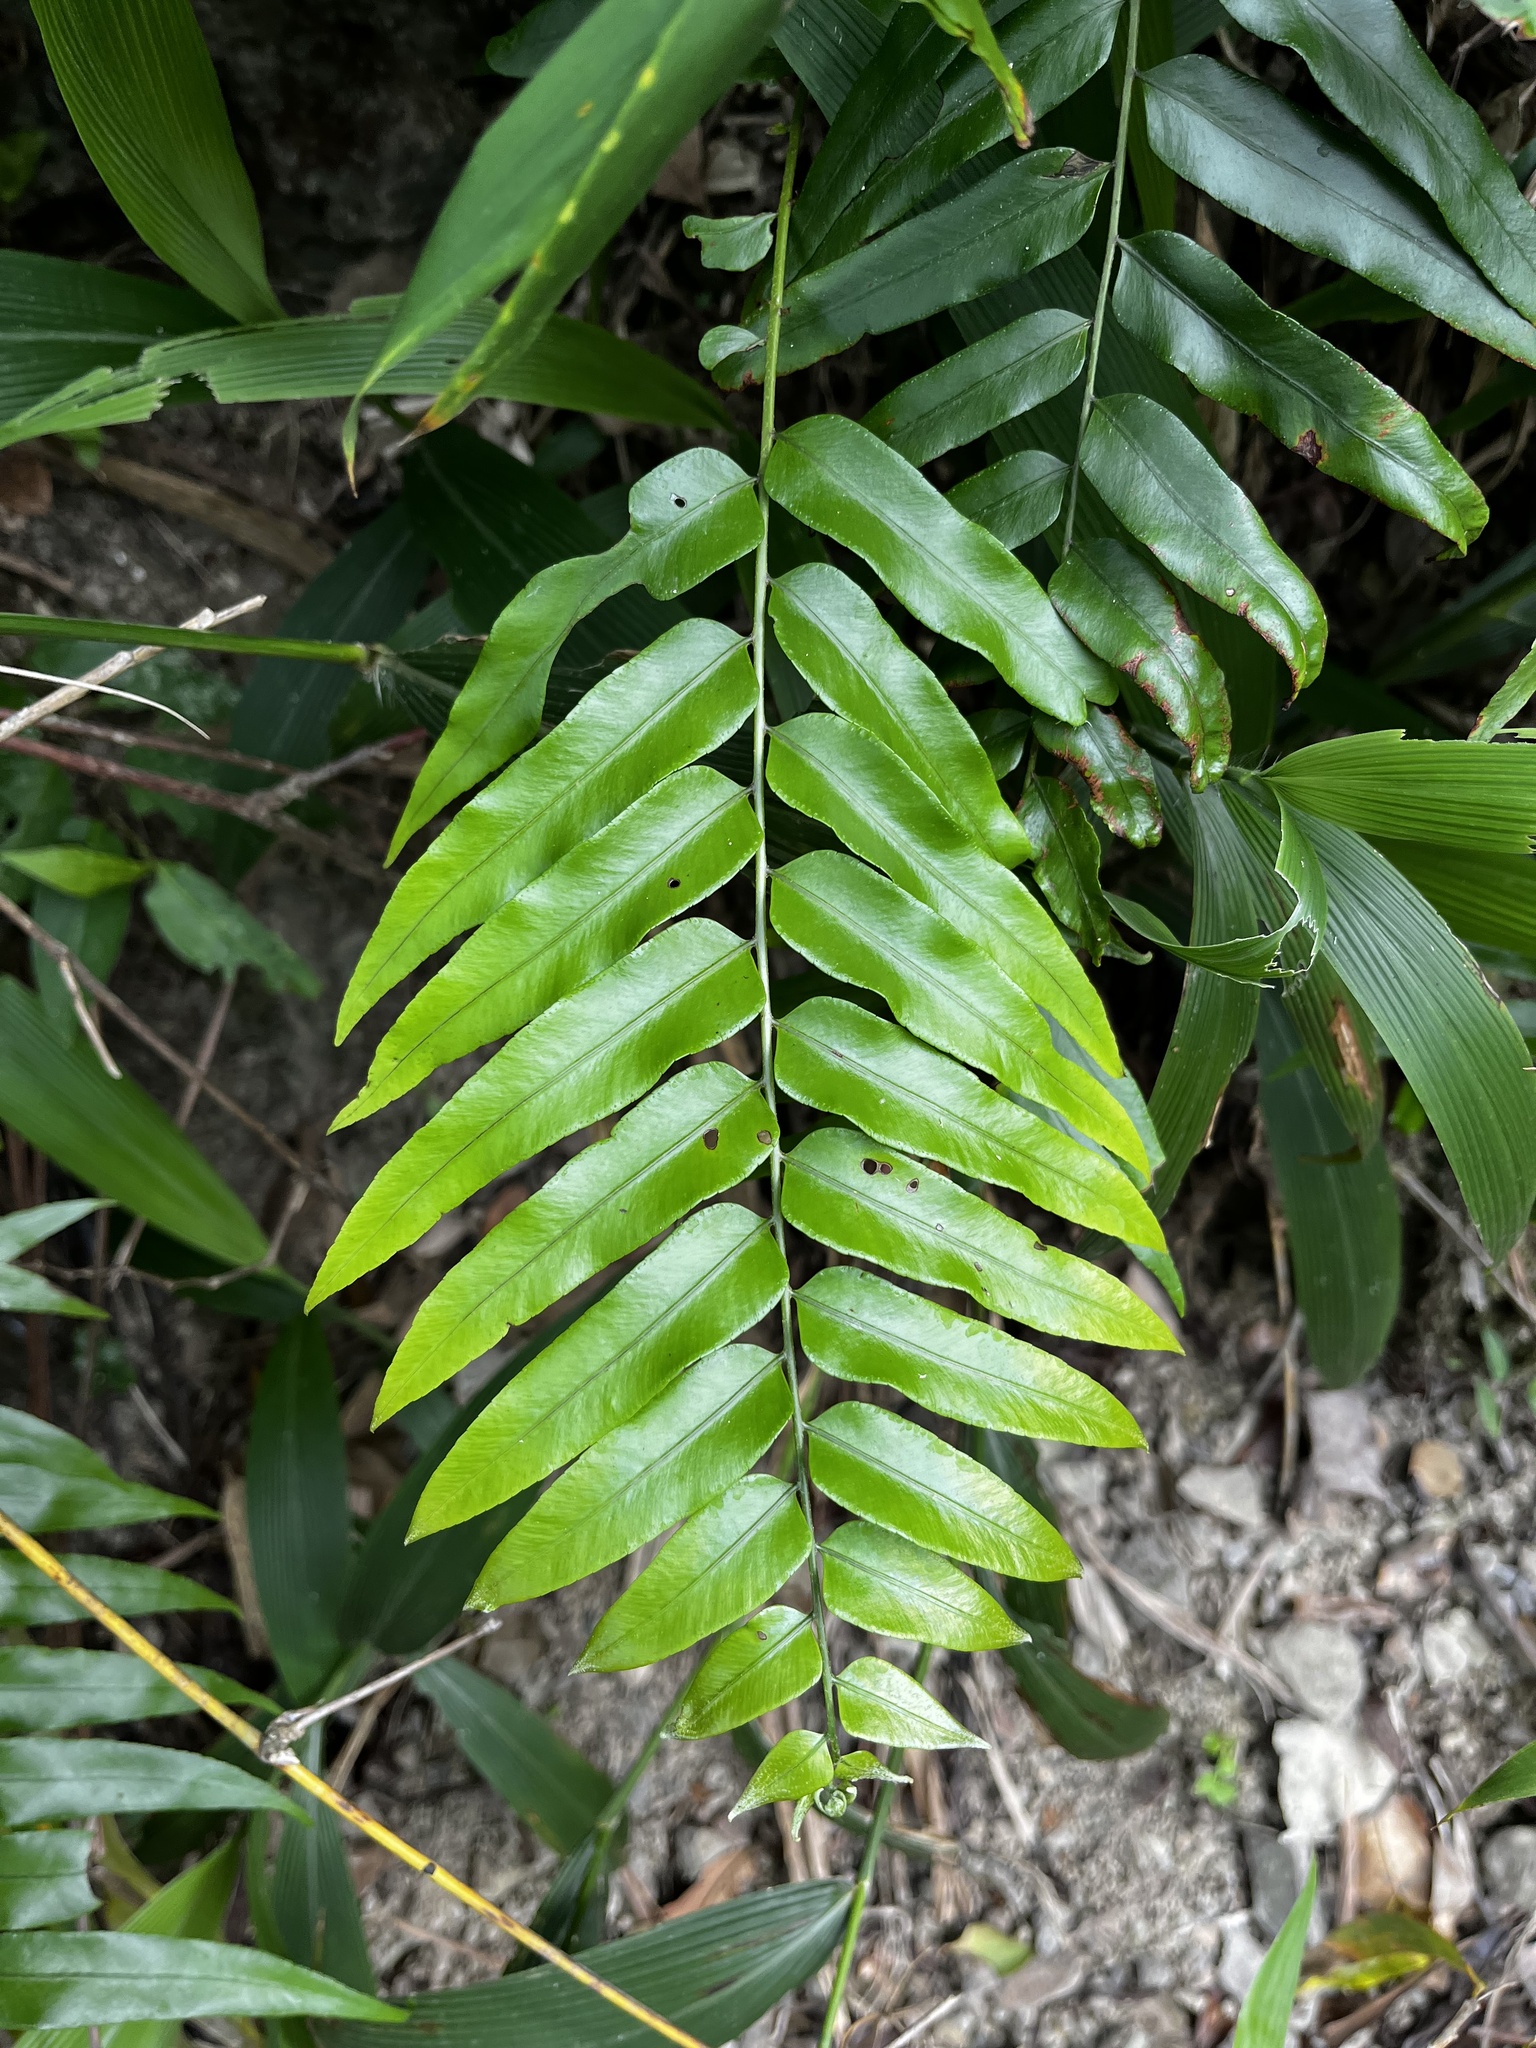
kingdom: Plantae
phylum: Tracheophyta
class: Polypodiopsida
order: Polypodiales
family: Nephrolepidaceae
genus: Nephrolepis
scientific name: Nephrolepis biserrata
